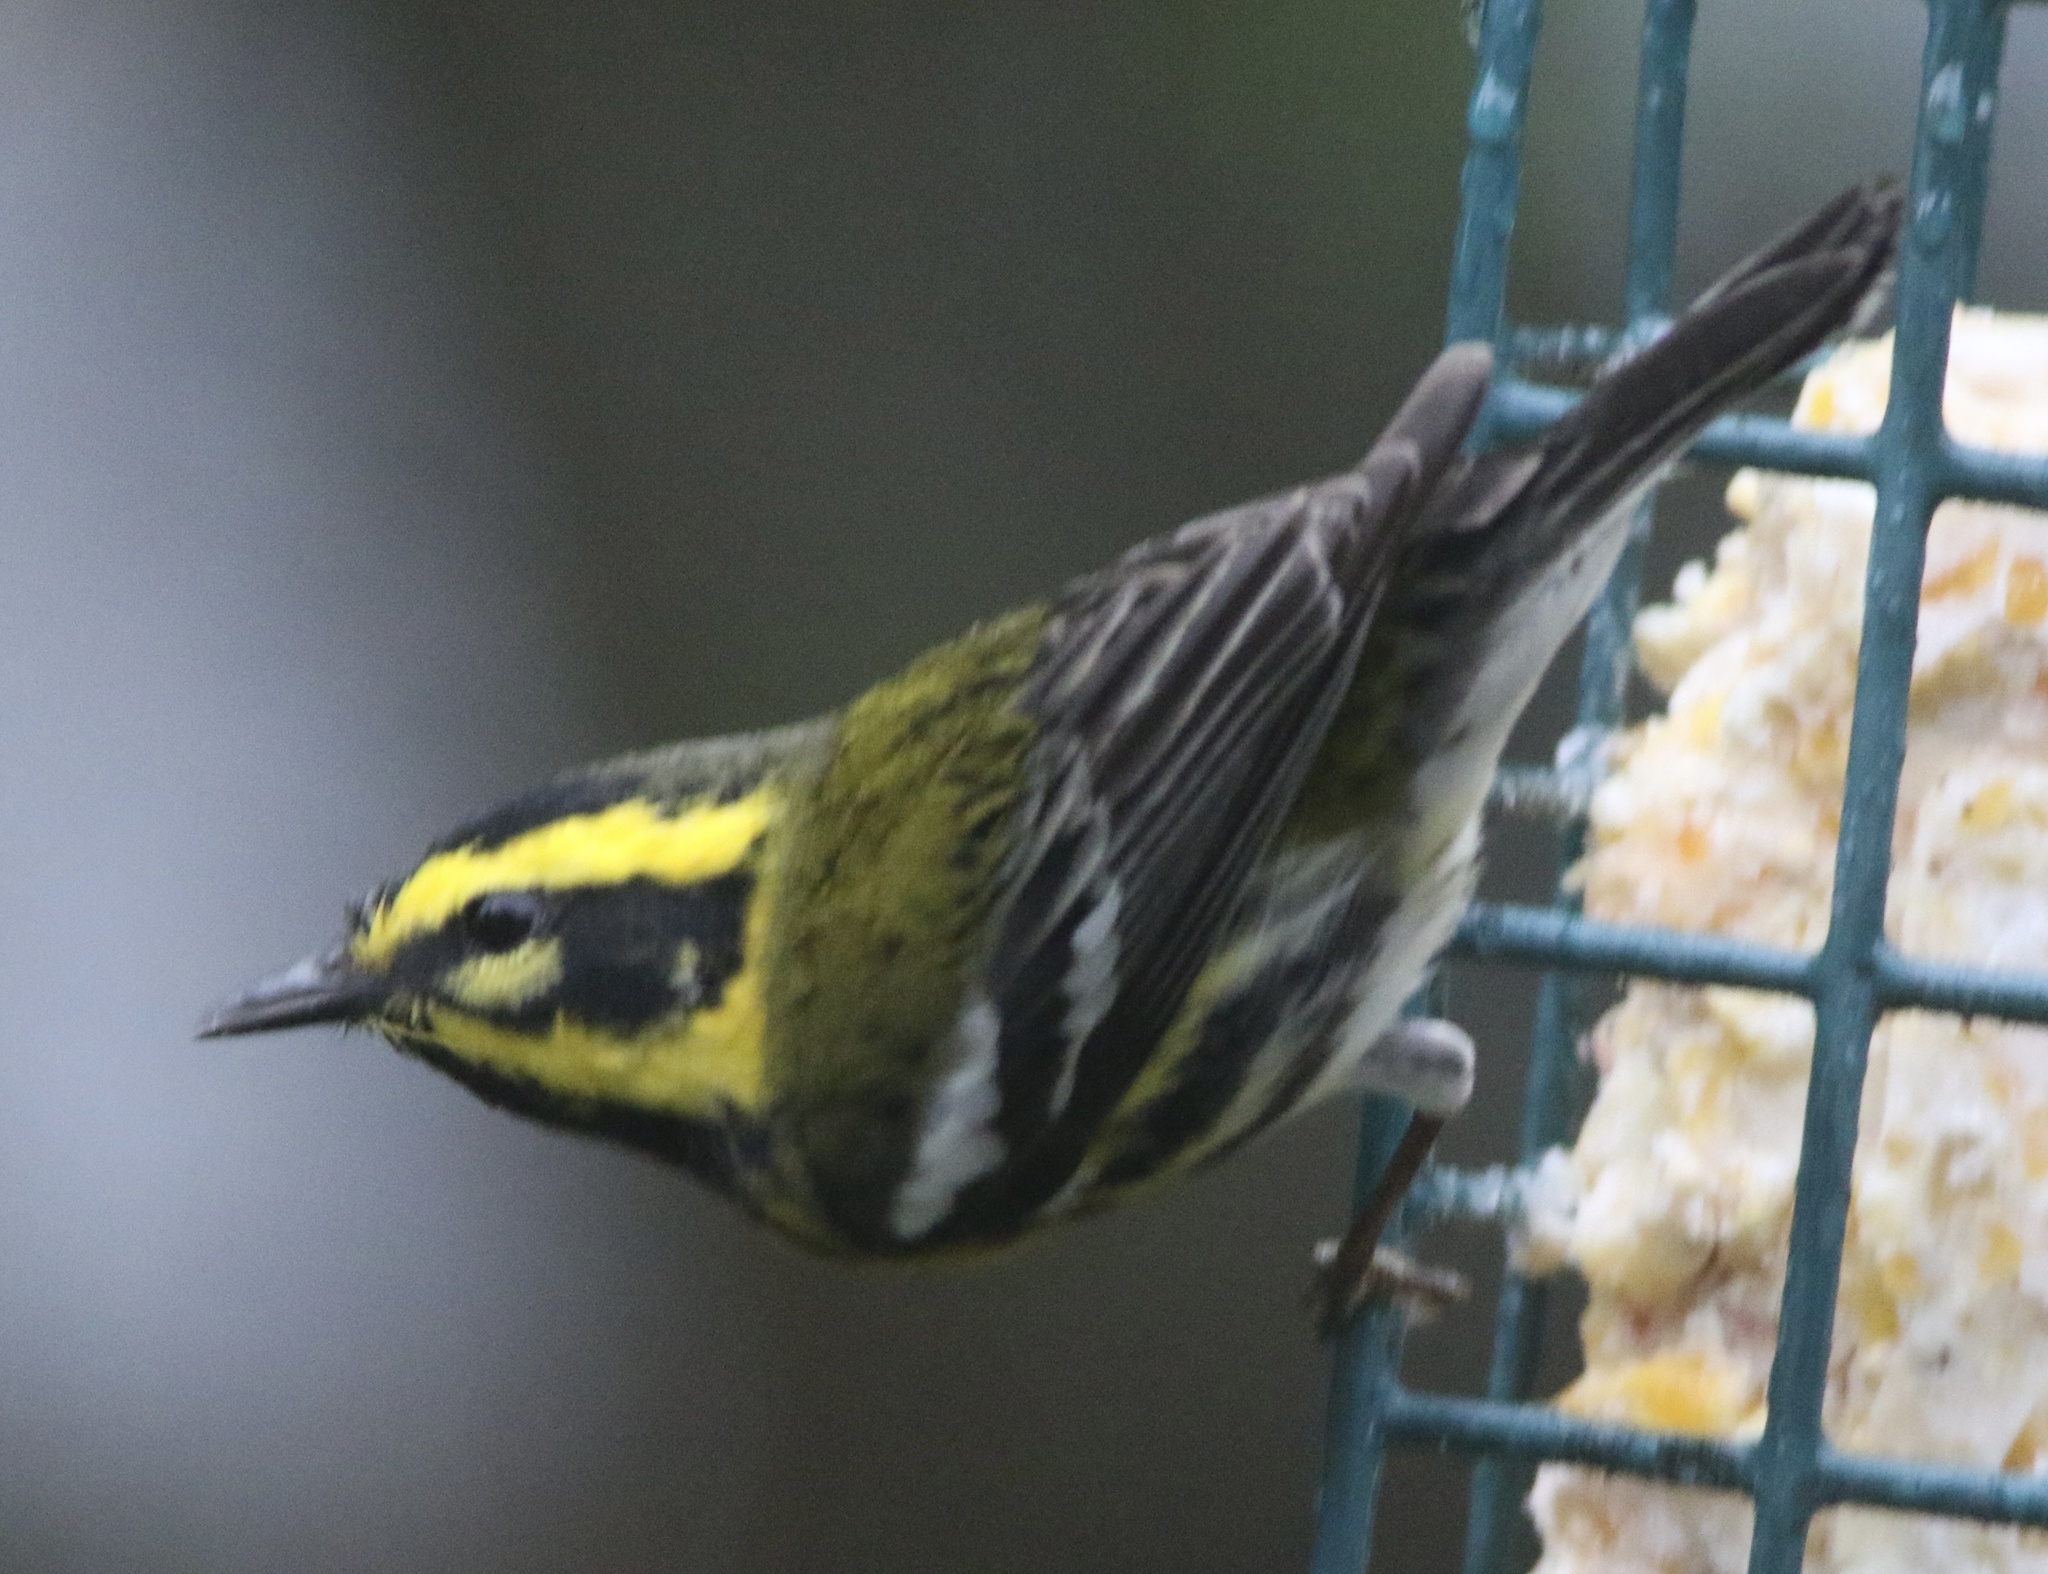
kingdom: Animalia
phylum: Chordata
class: Aves
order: Passeriformes
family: Parulidae
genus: Setophaga
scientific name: Setophaga townsendi
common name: Townsend's warbler
